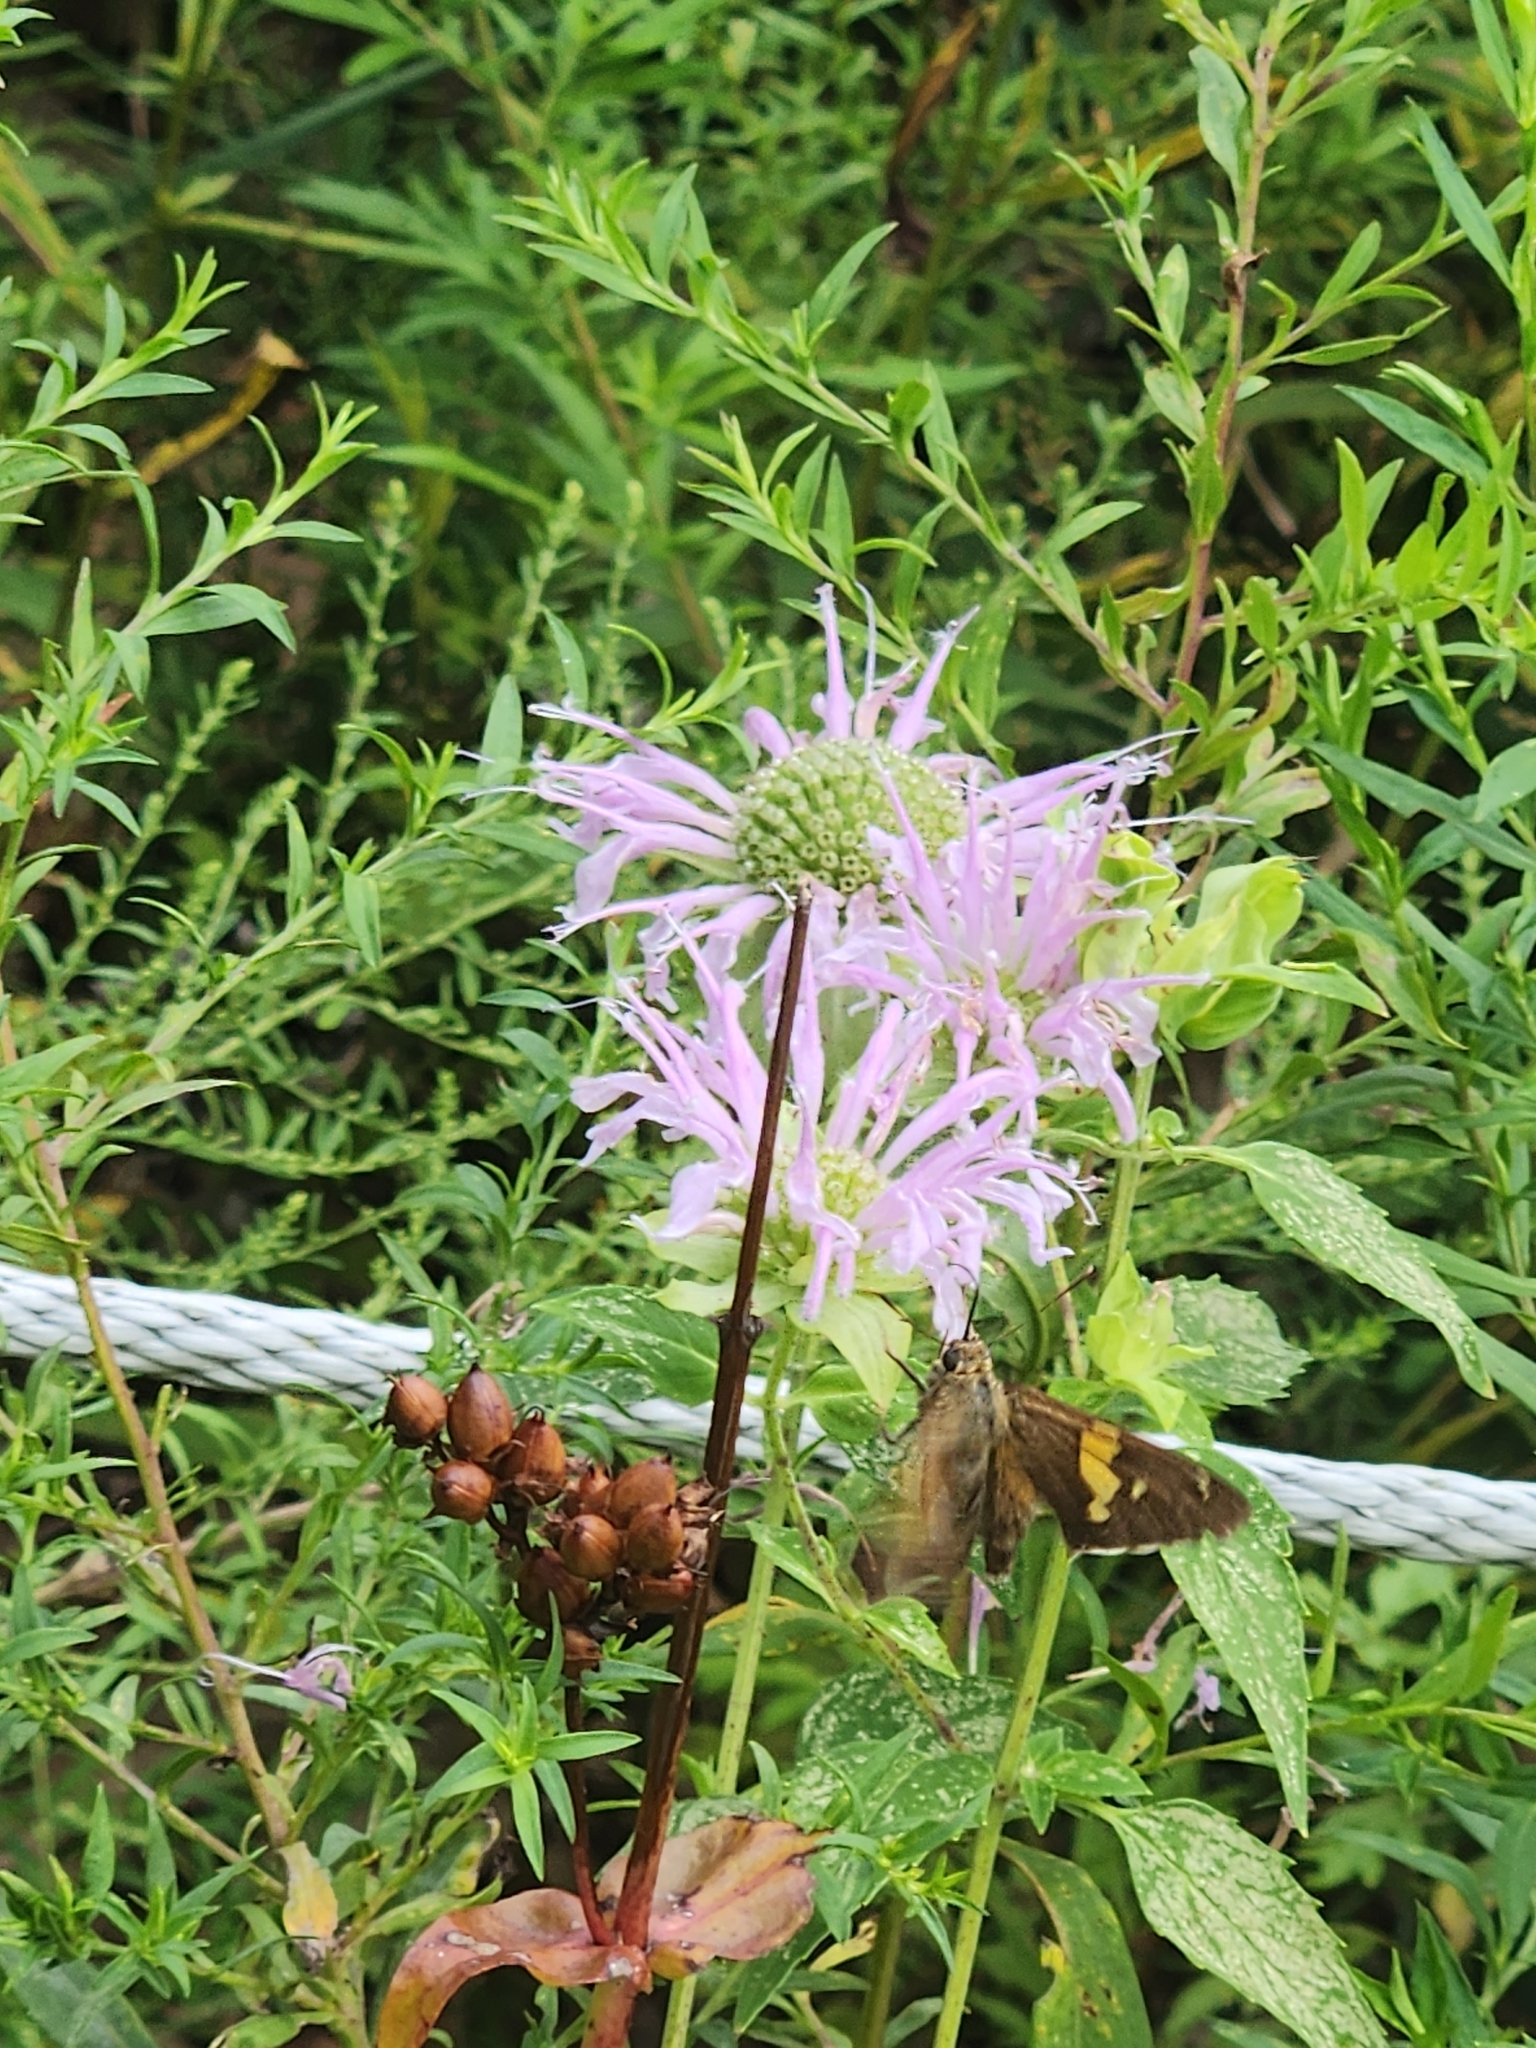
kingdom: Animalia
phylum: Arthropoda
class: Insecta
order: Lepidoptera
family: Hesperiidae
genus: Epargyreus
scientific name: Epargyreus clarus
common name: Silver-spotted skipper
